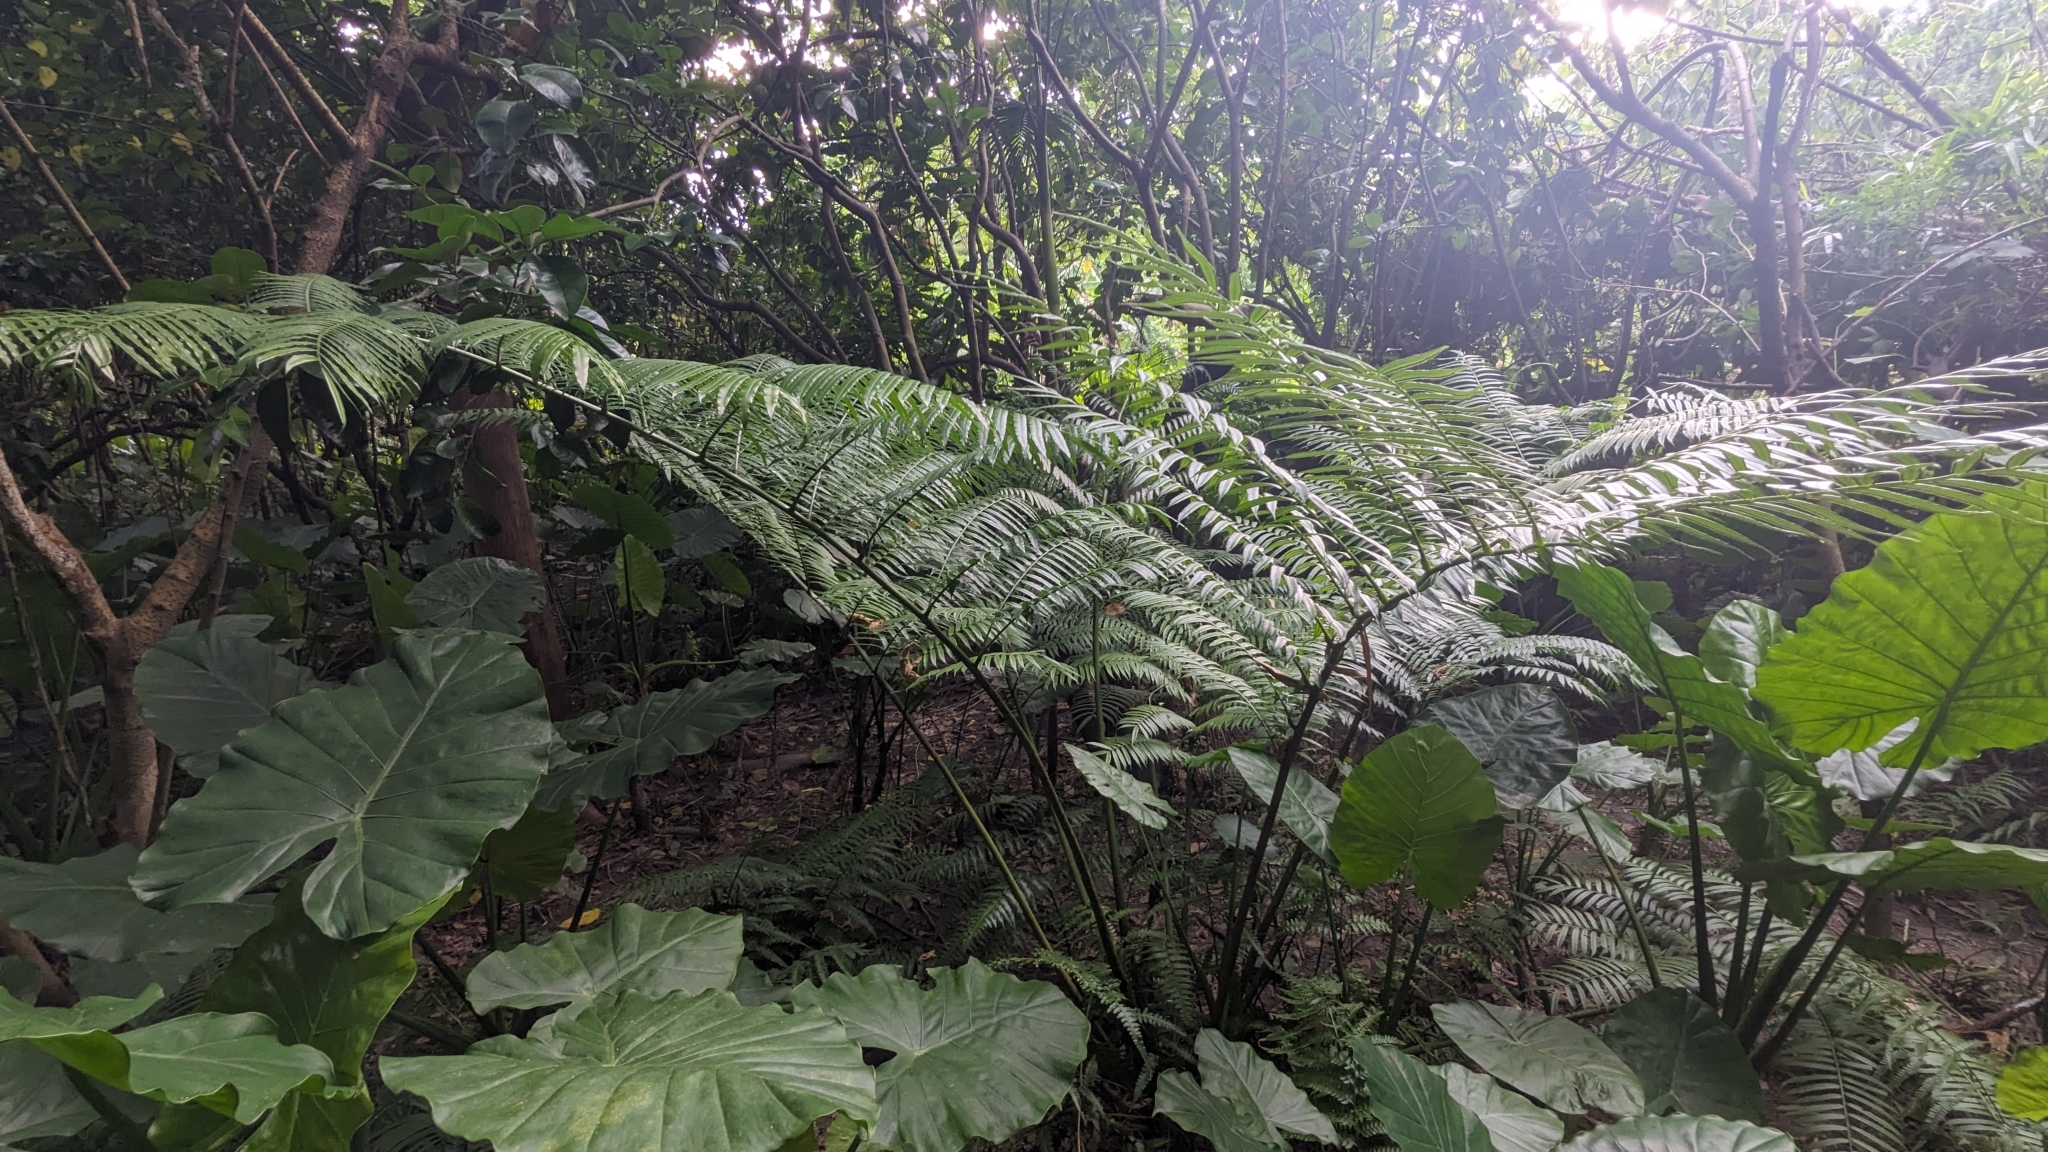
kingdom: Plantae
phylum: Tracheophyta
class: Polypodiopsida
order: Marattiales
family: Marattiaceae
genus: Angiopteris
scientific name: Angiopteris lygodiifolia
